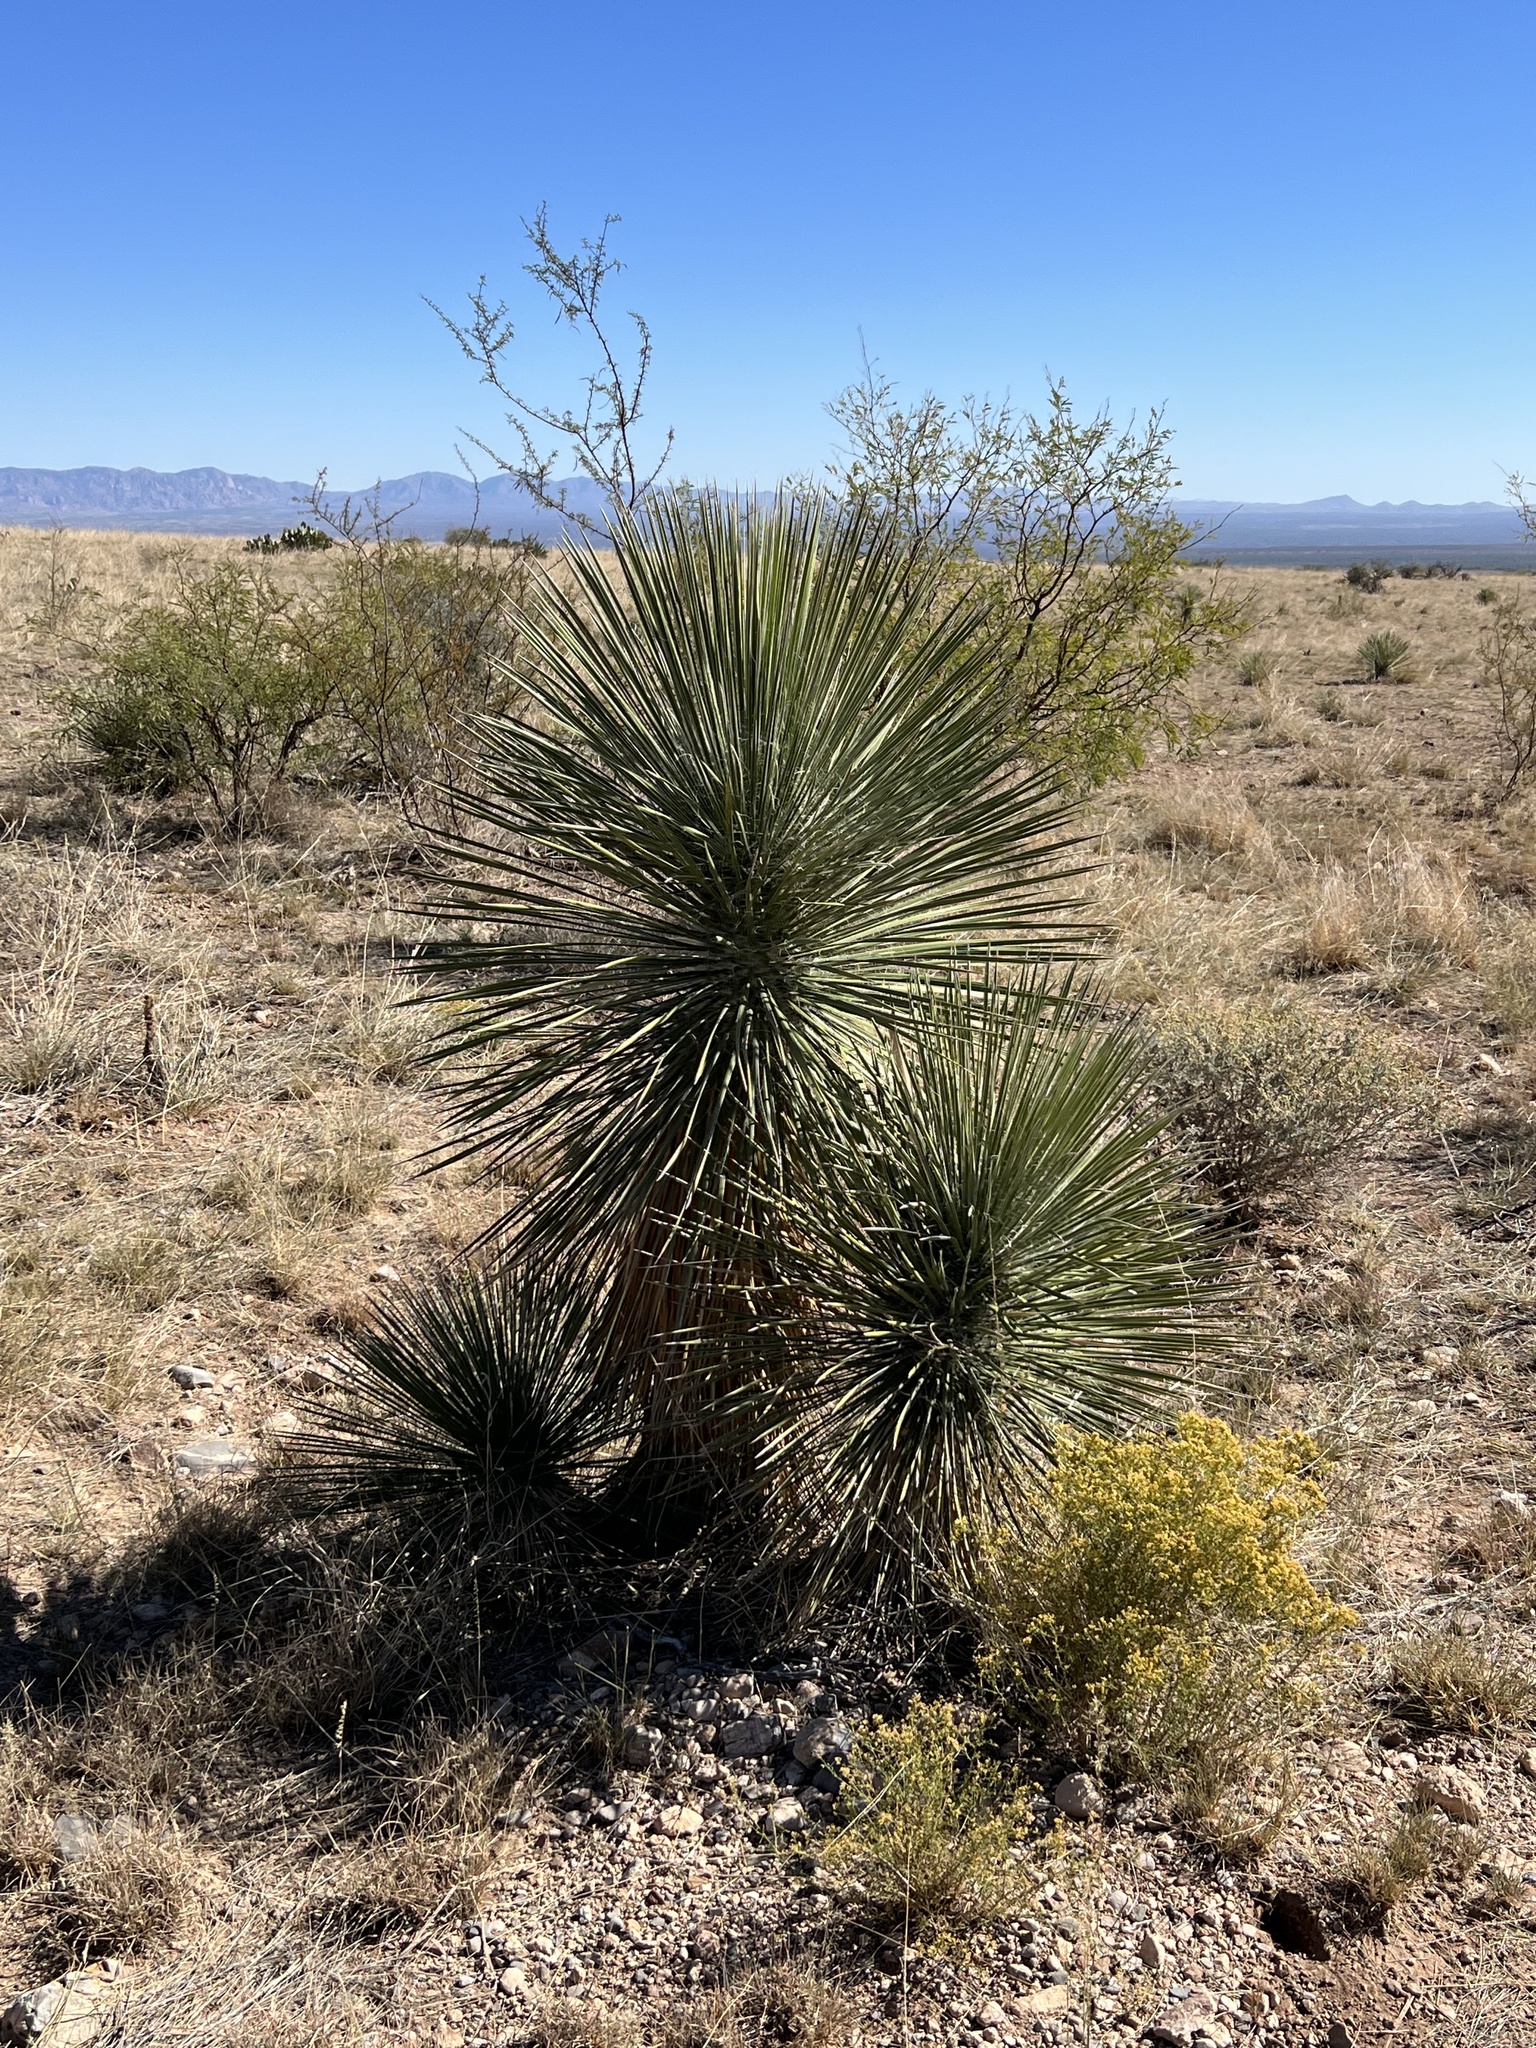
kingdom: Plantae
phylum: Tracheophyta
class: Liliopsida
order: Asparagales
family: Asparagaceae
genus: Yucca
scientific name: Yucca elata
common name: Palmella
